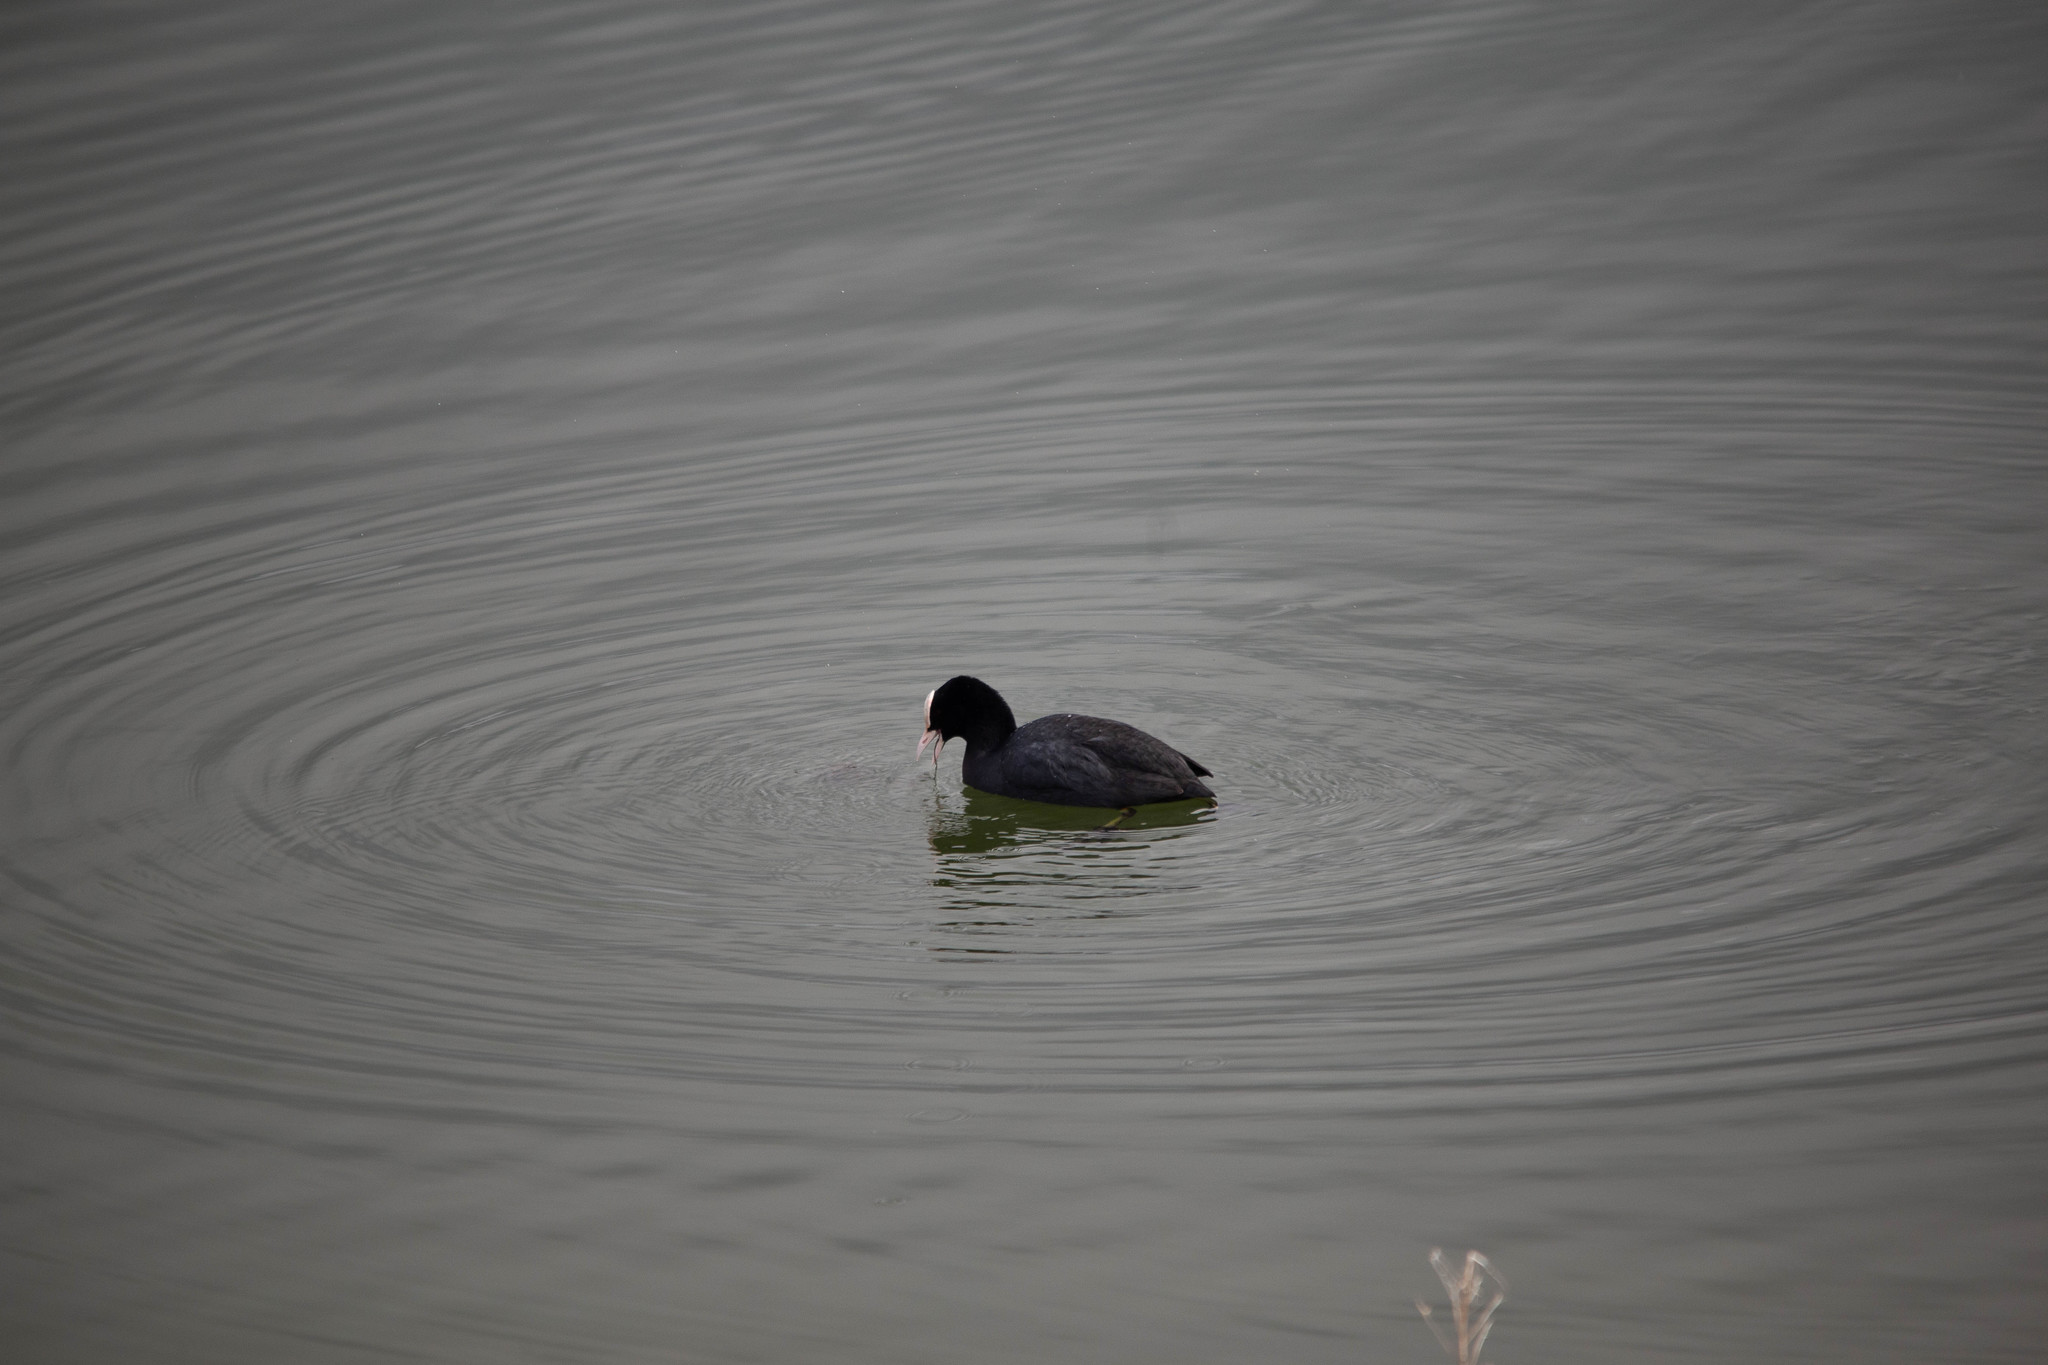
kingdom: Animalia
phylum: Chordata
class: Aves
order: Gruiformes
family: Rallidae
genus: Fulica
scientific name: Fulica atra
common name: Eurasian coot
